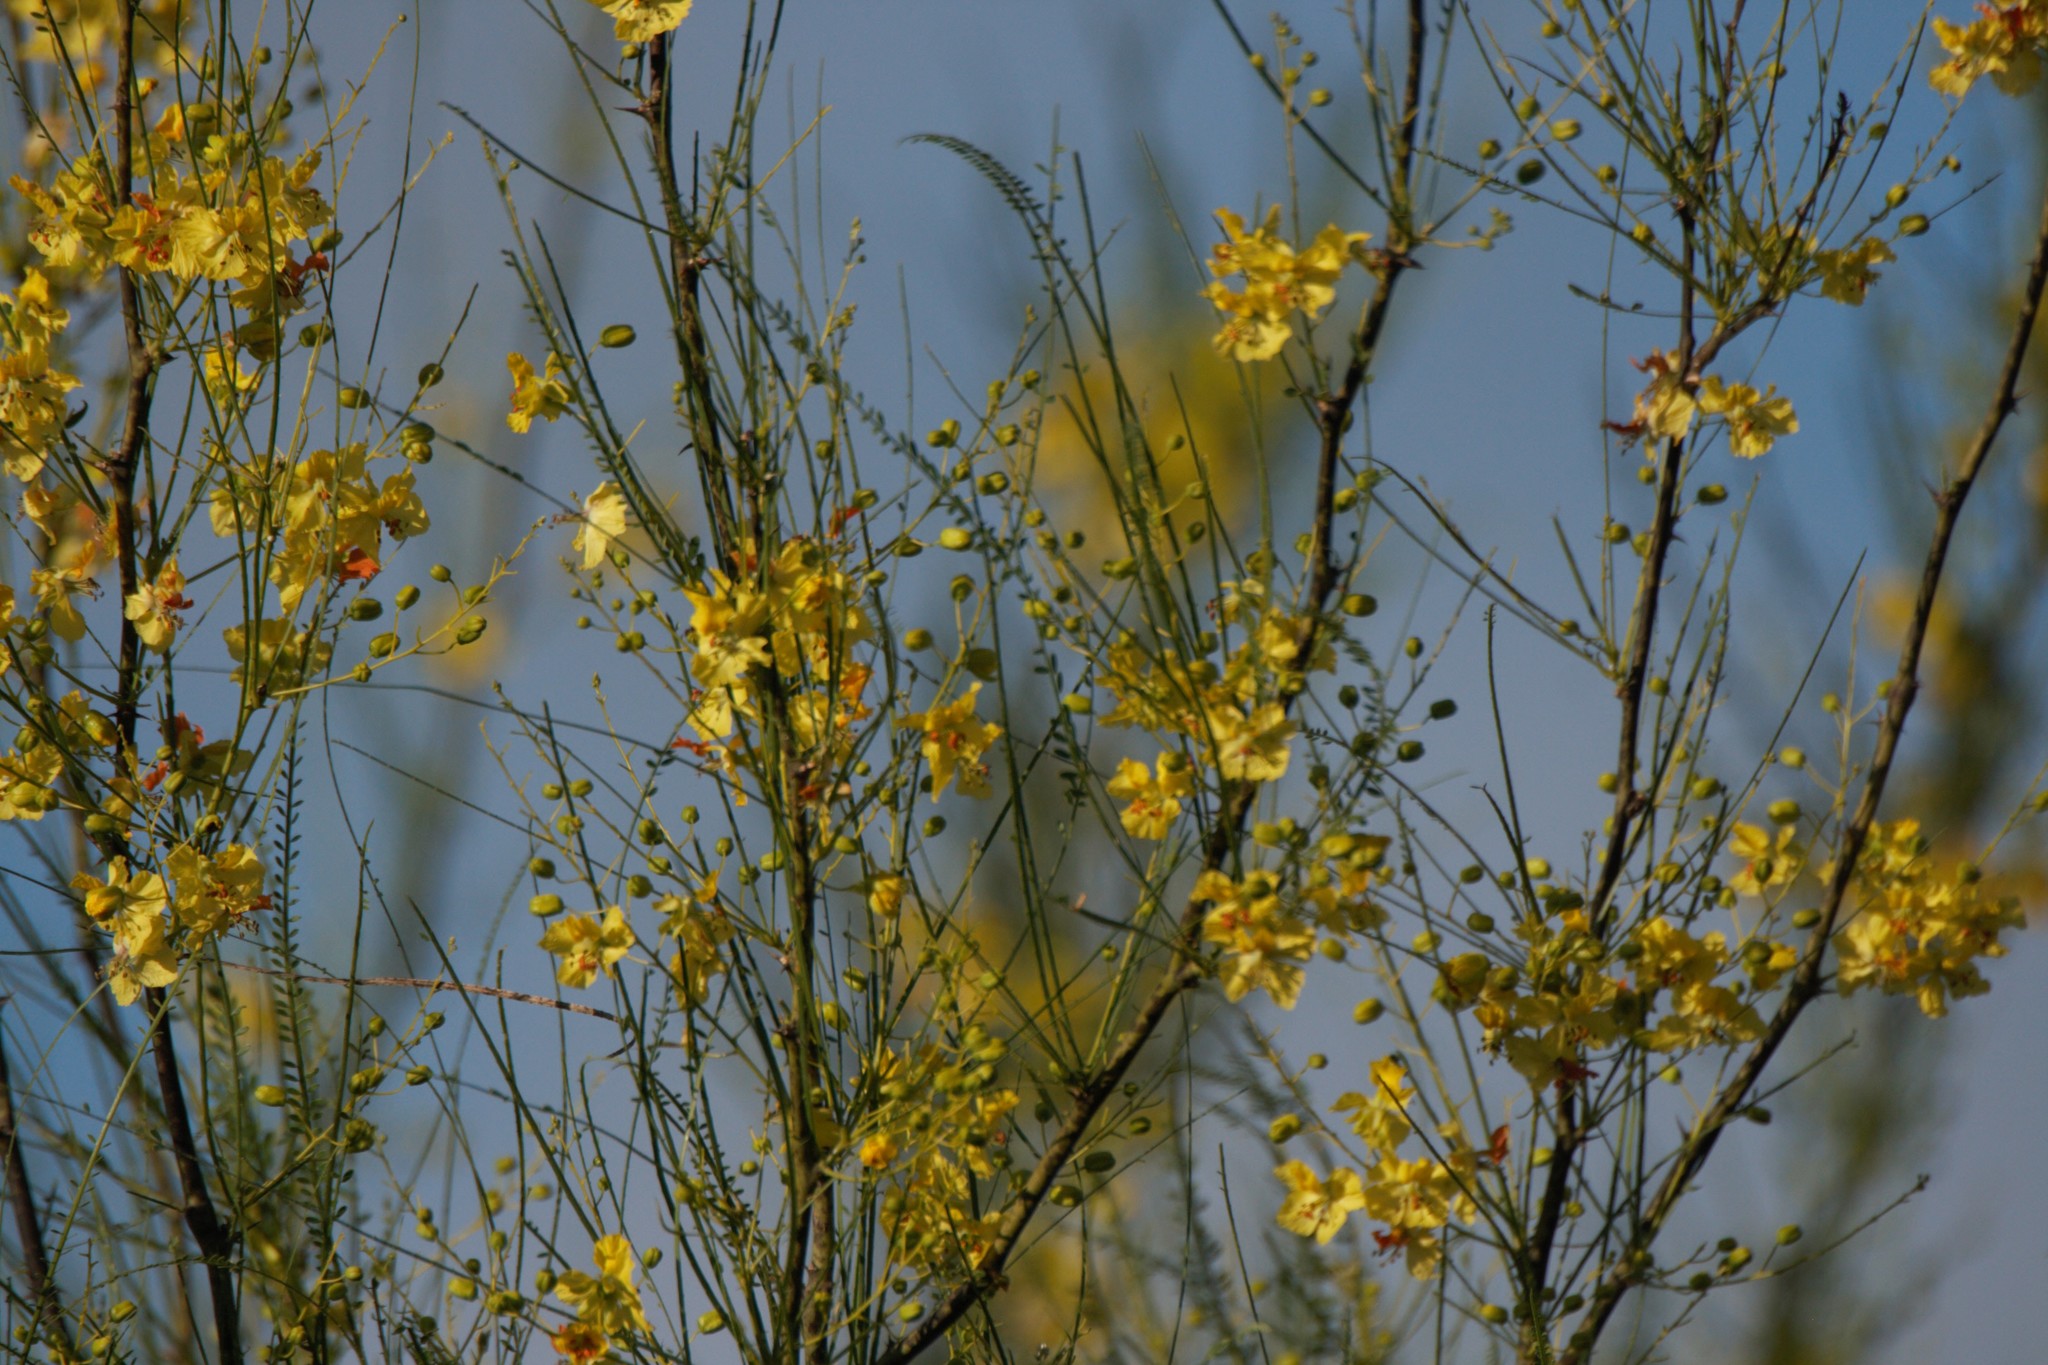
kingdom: Plantae
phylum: Tracheophyta
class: Magnoliopsida
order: Fabales
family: Fabaceae
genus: Parkinsonia
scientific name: Parkinsonia aculeata
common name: Jerusalem thorn
